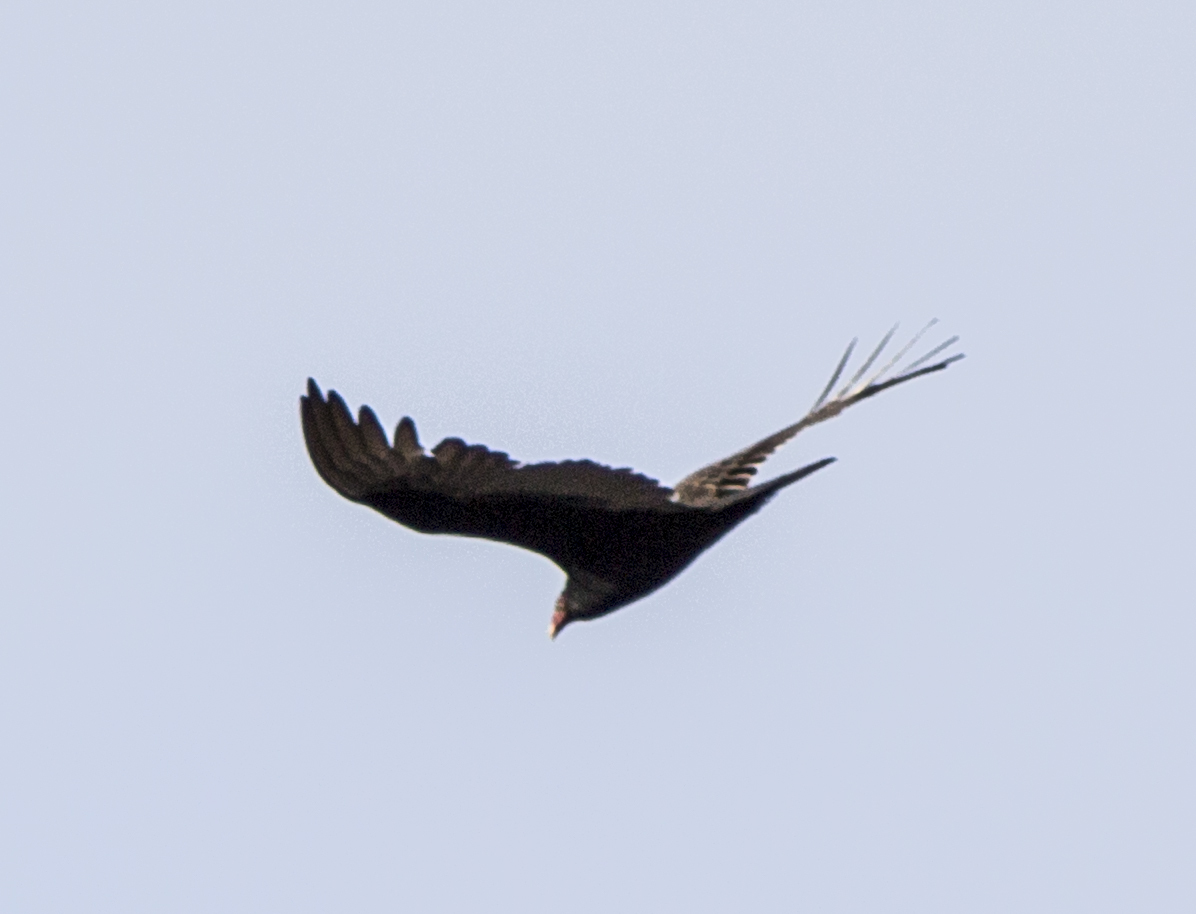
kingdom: Animalia
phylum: Chordata
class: Aves
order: Accipitriformes
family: Cathartidae
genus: Cathartes
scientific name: Cathartes aura
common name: Turkey vulture
